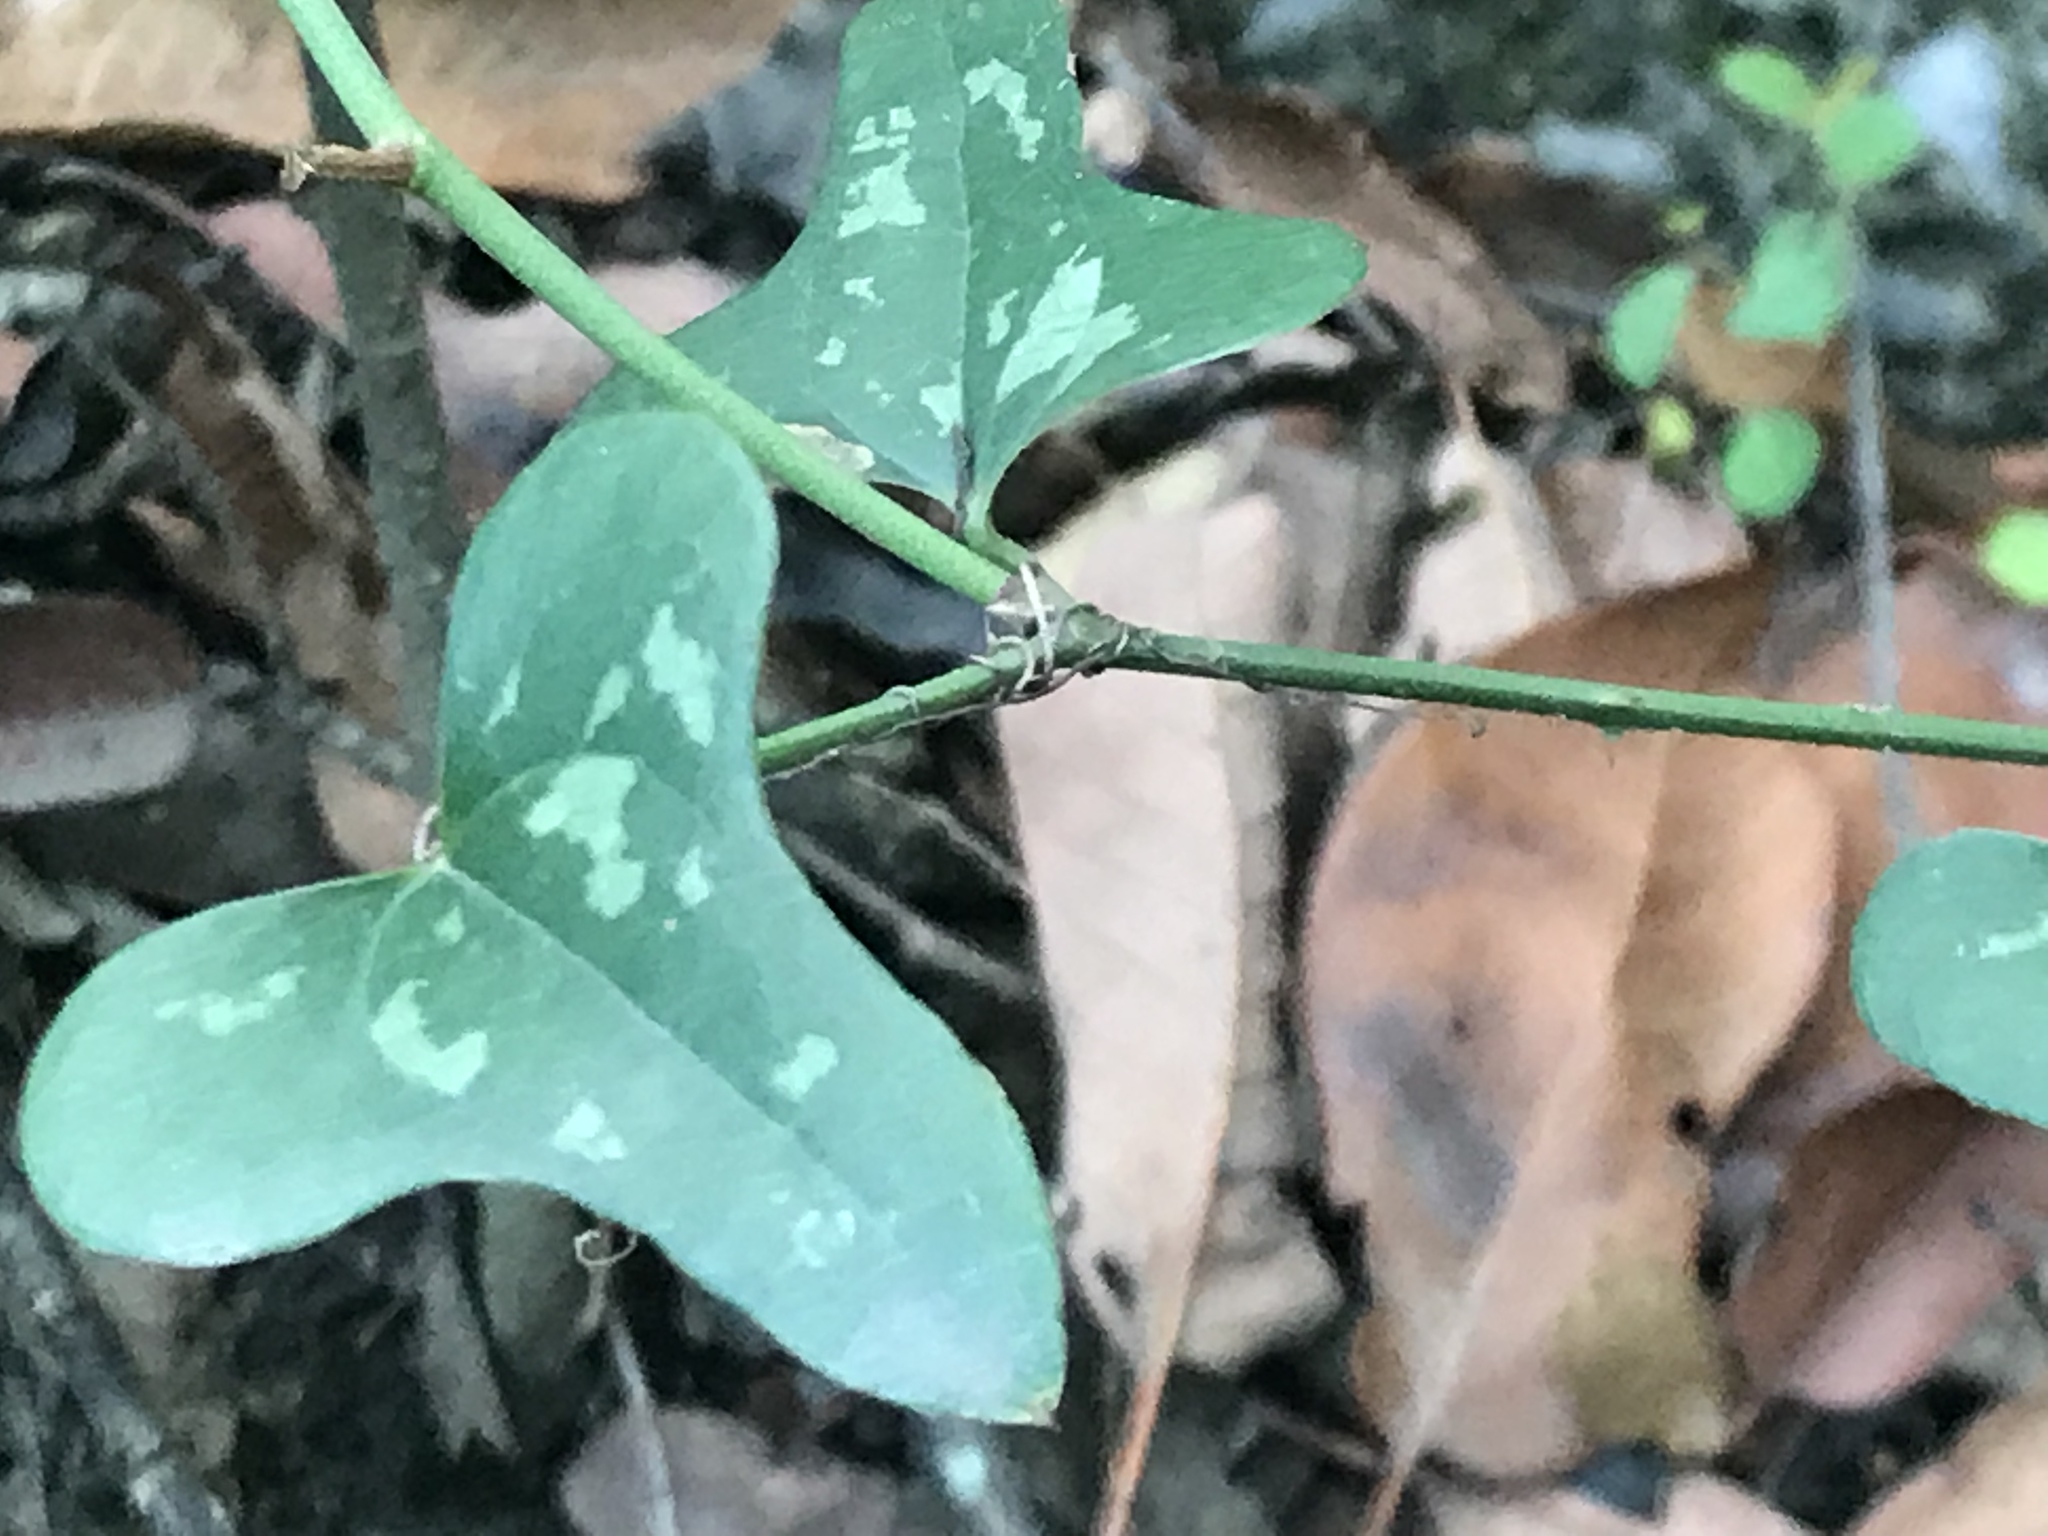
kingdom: Plantae
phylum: Tracheophyta
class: Liliopsida
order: Liliales
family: Smilacaceae
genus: Smilax
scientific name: Smilax bona-nox
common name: Catbrier
